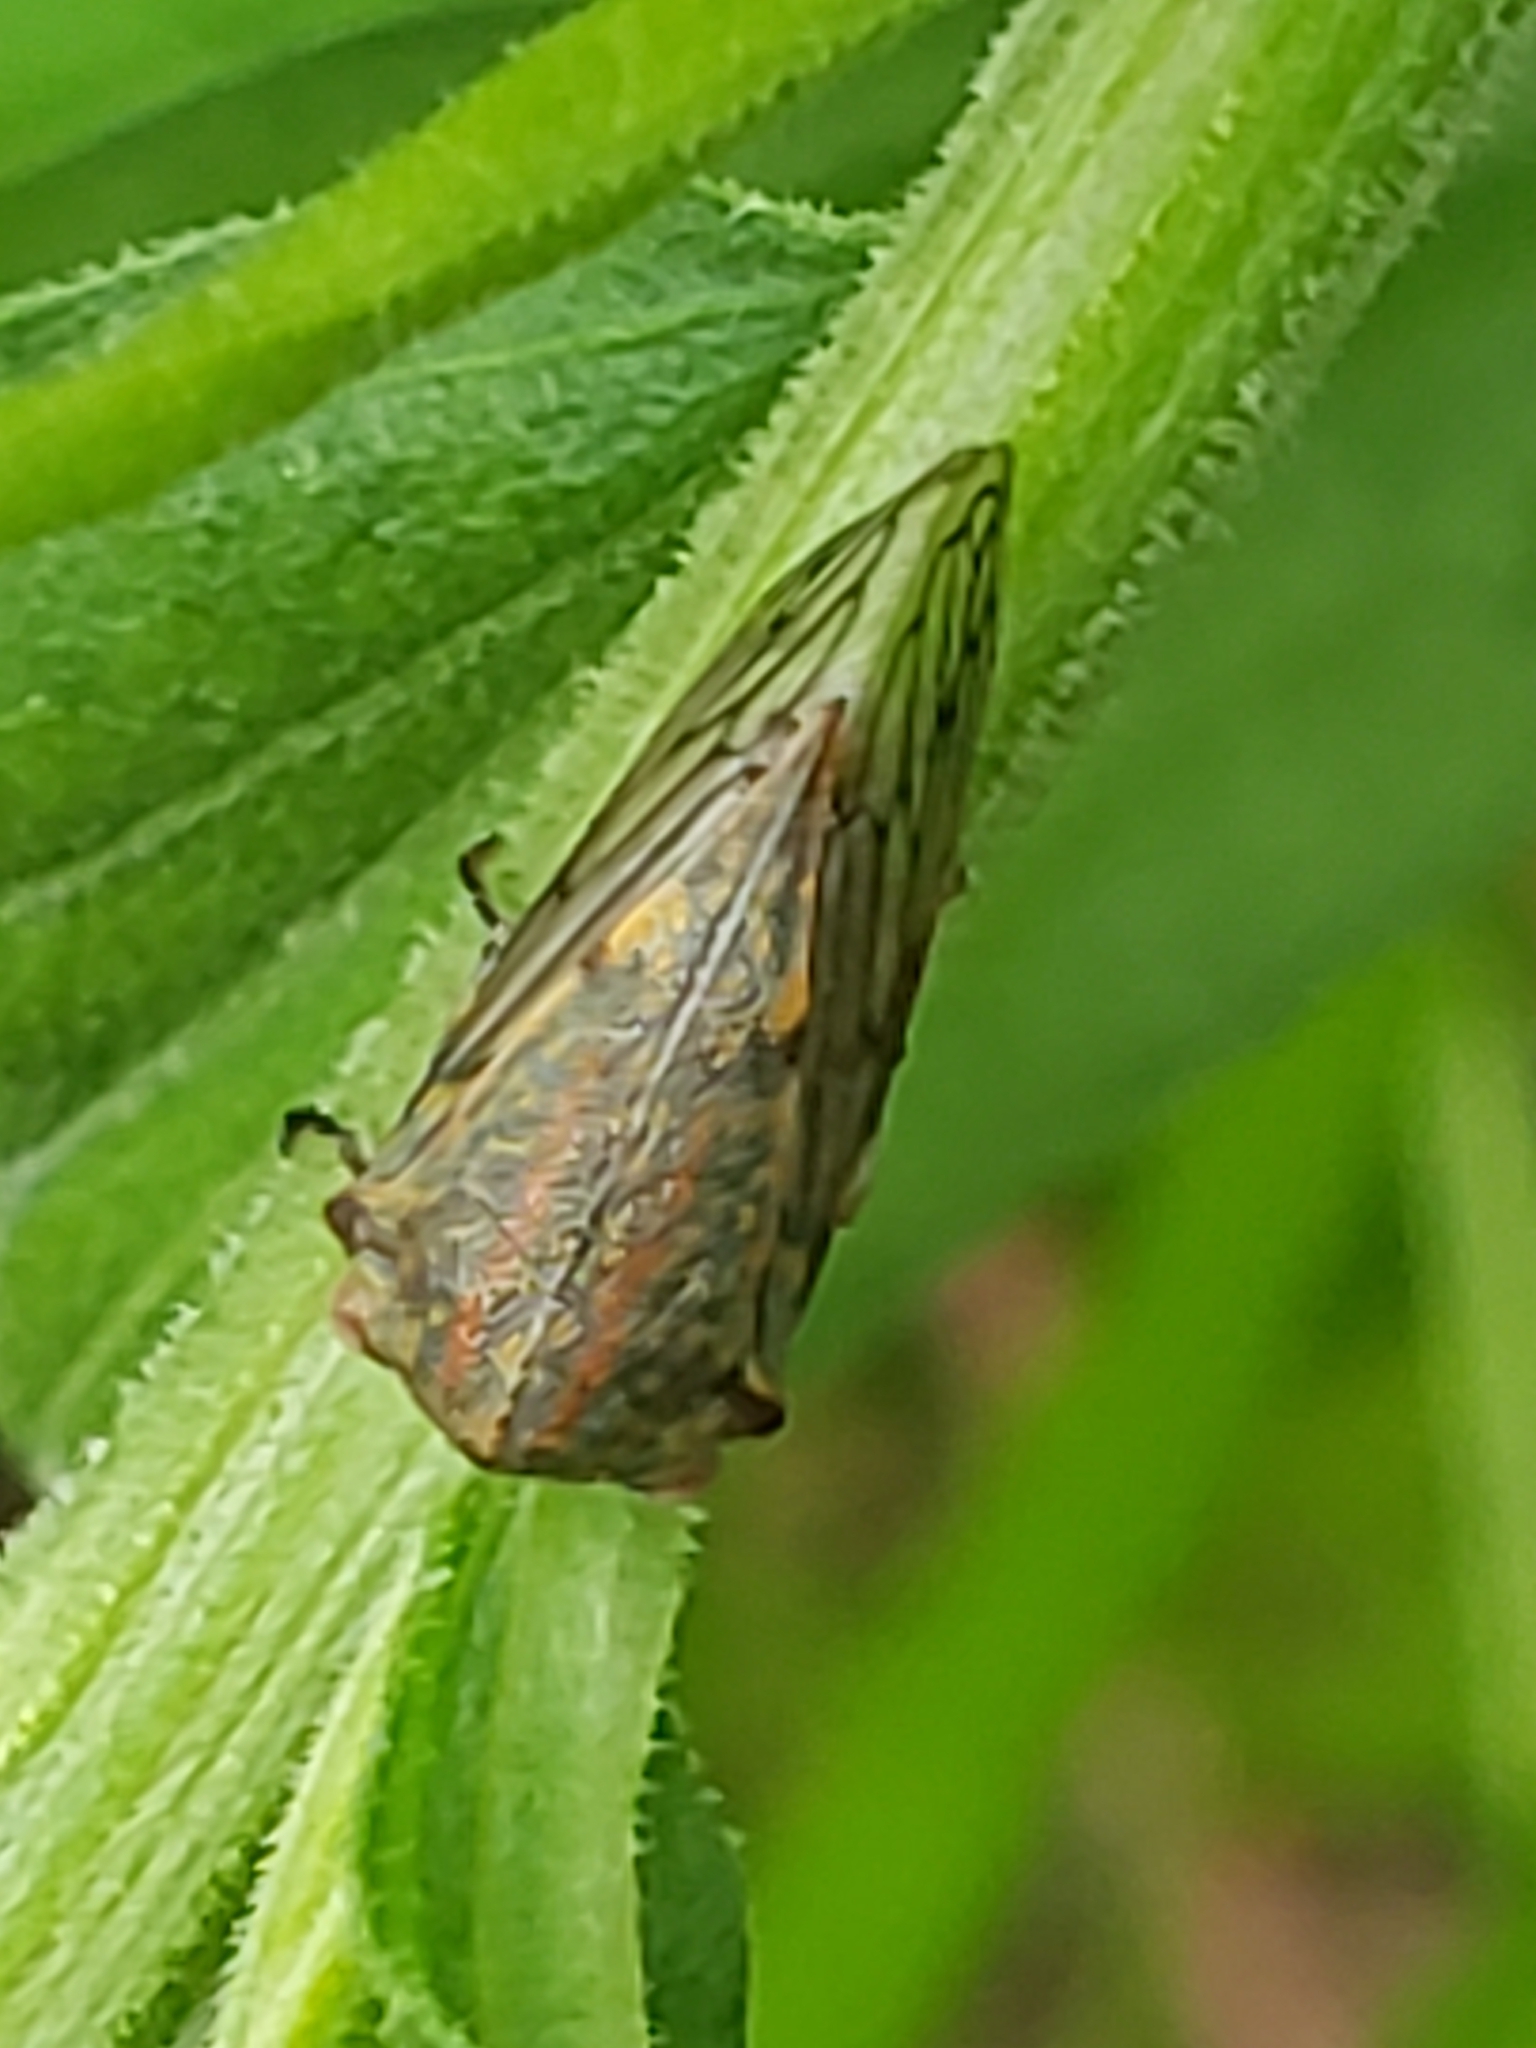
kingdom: Animalia
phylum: Arthropoda
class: Insecta
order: Hemiptera
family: Membracidae
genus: Platycotis
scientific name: Platycotis vittatus
